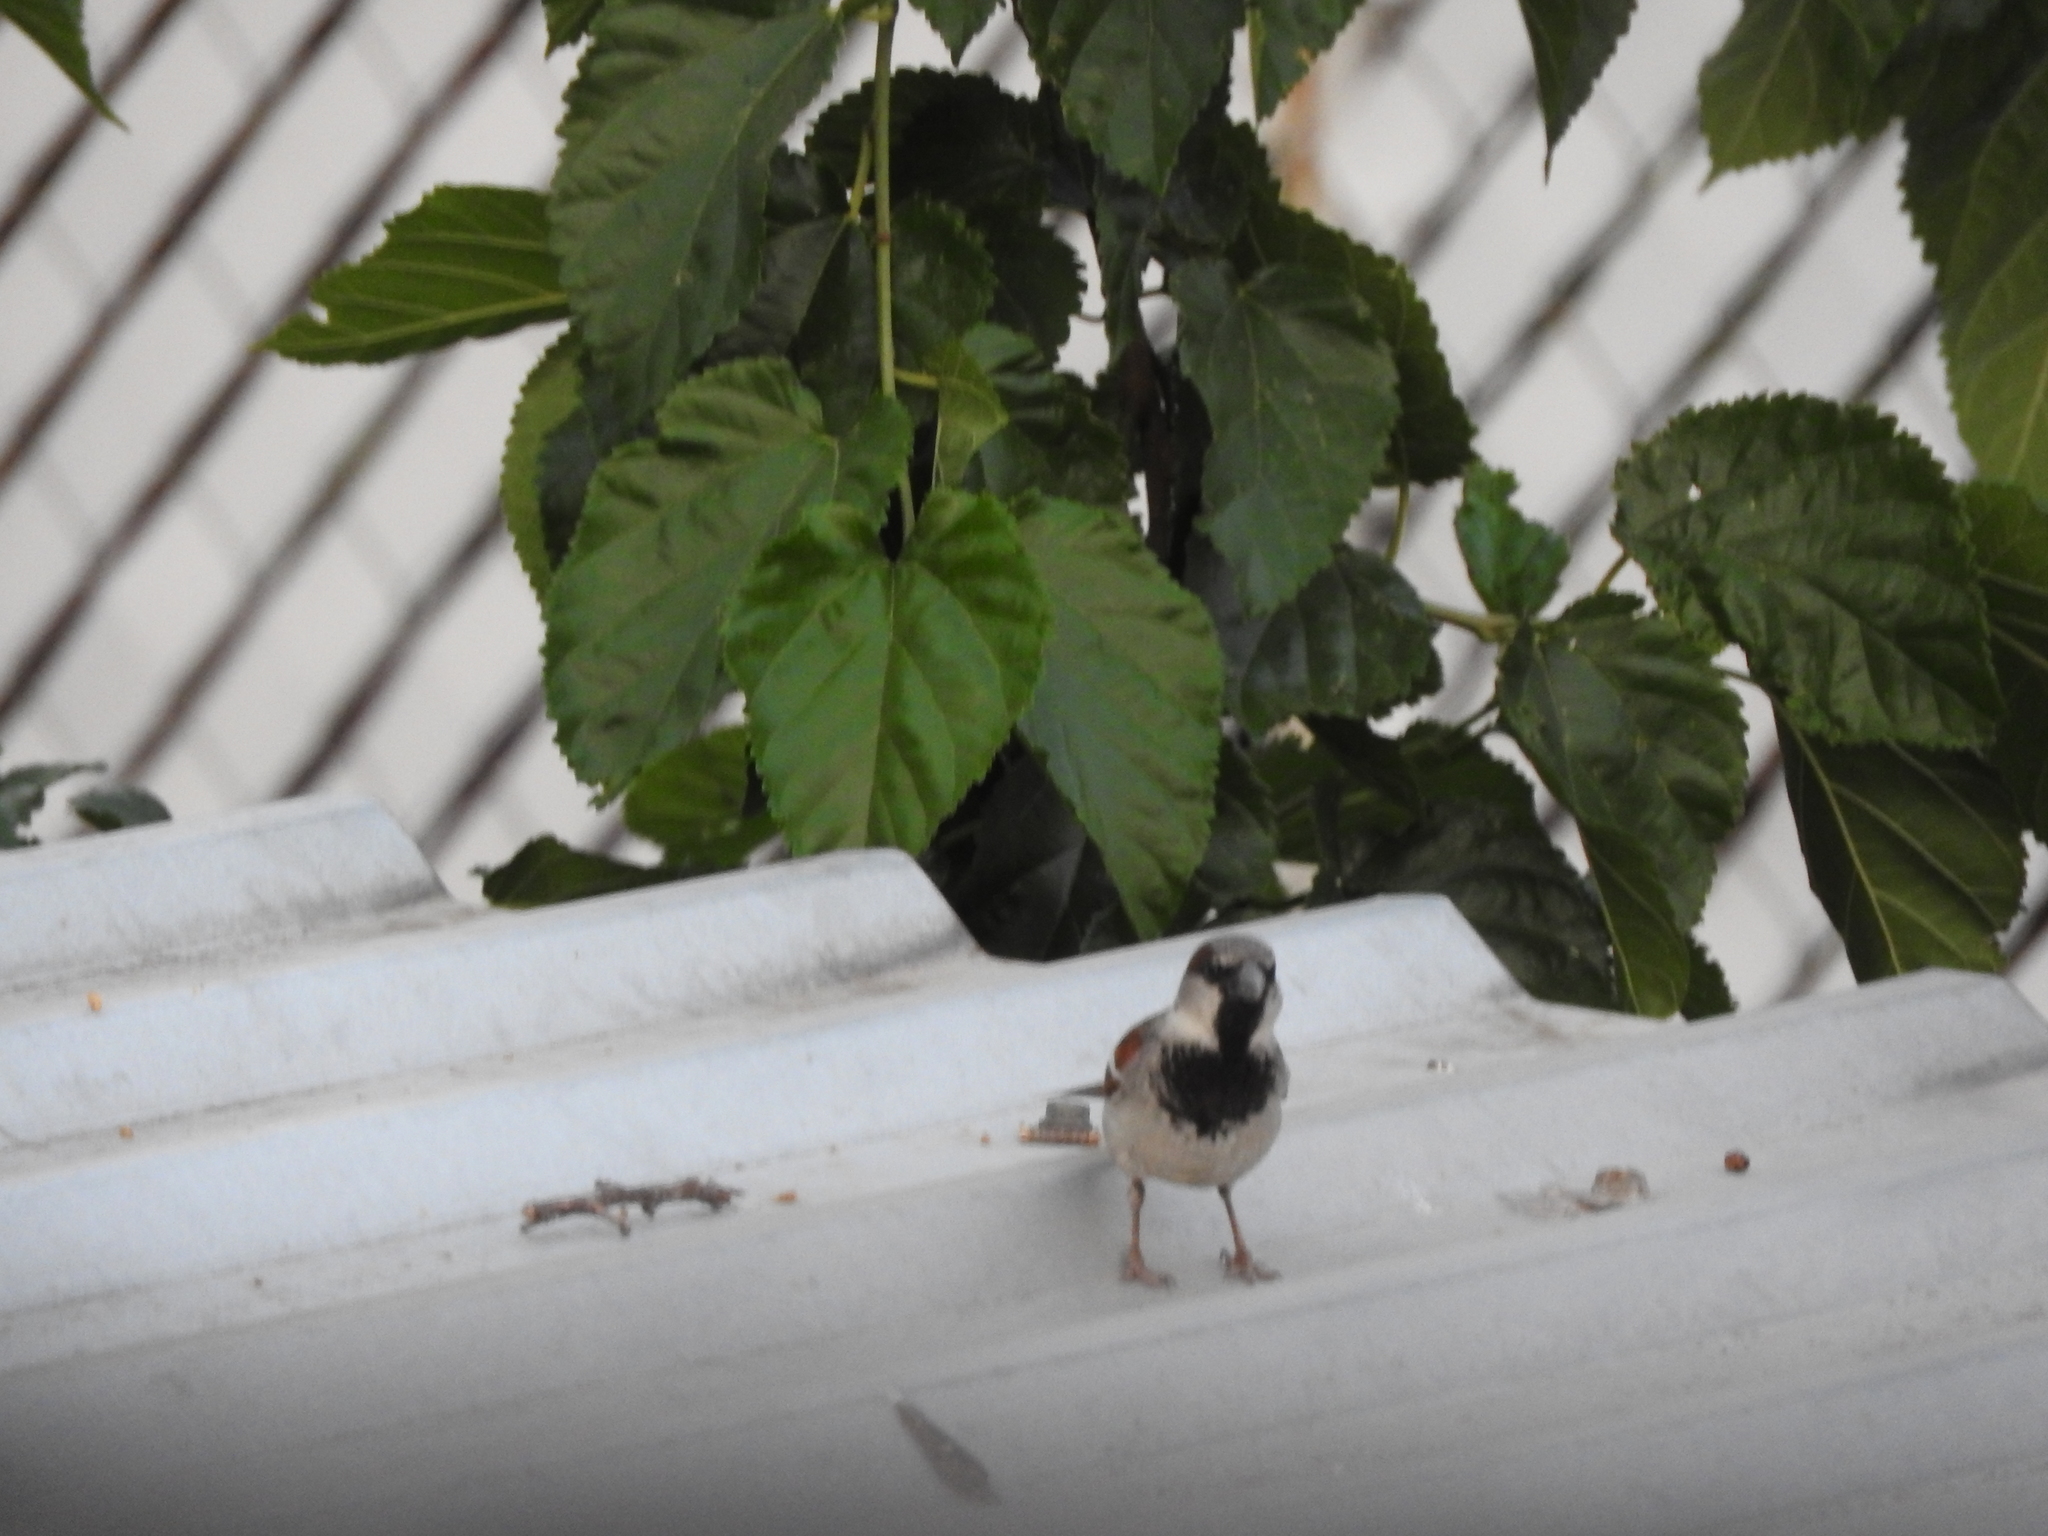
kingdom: Animalia
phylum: Chordata
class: Aves
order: Passeriformes
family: Passeridae
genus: Passer
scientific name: Passer domesticus
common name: House sparrow
